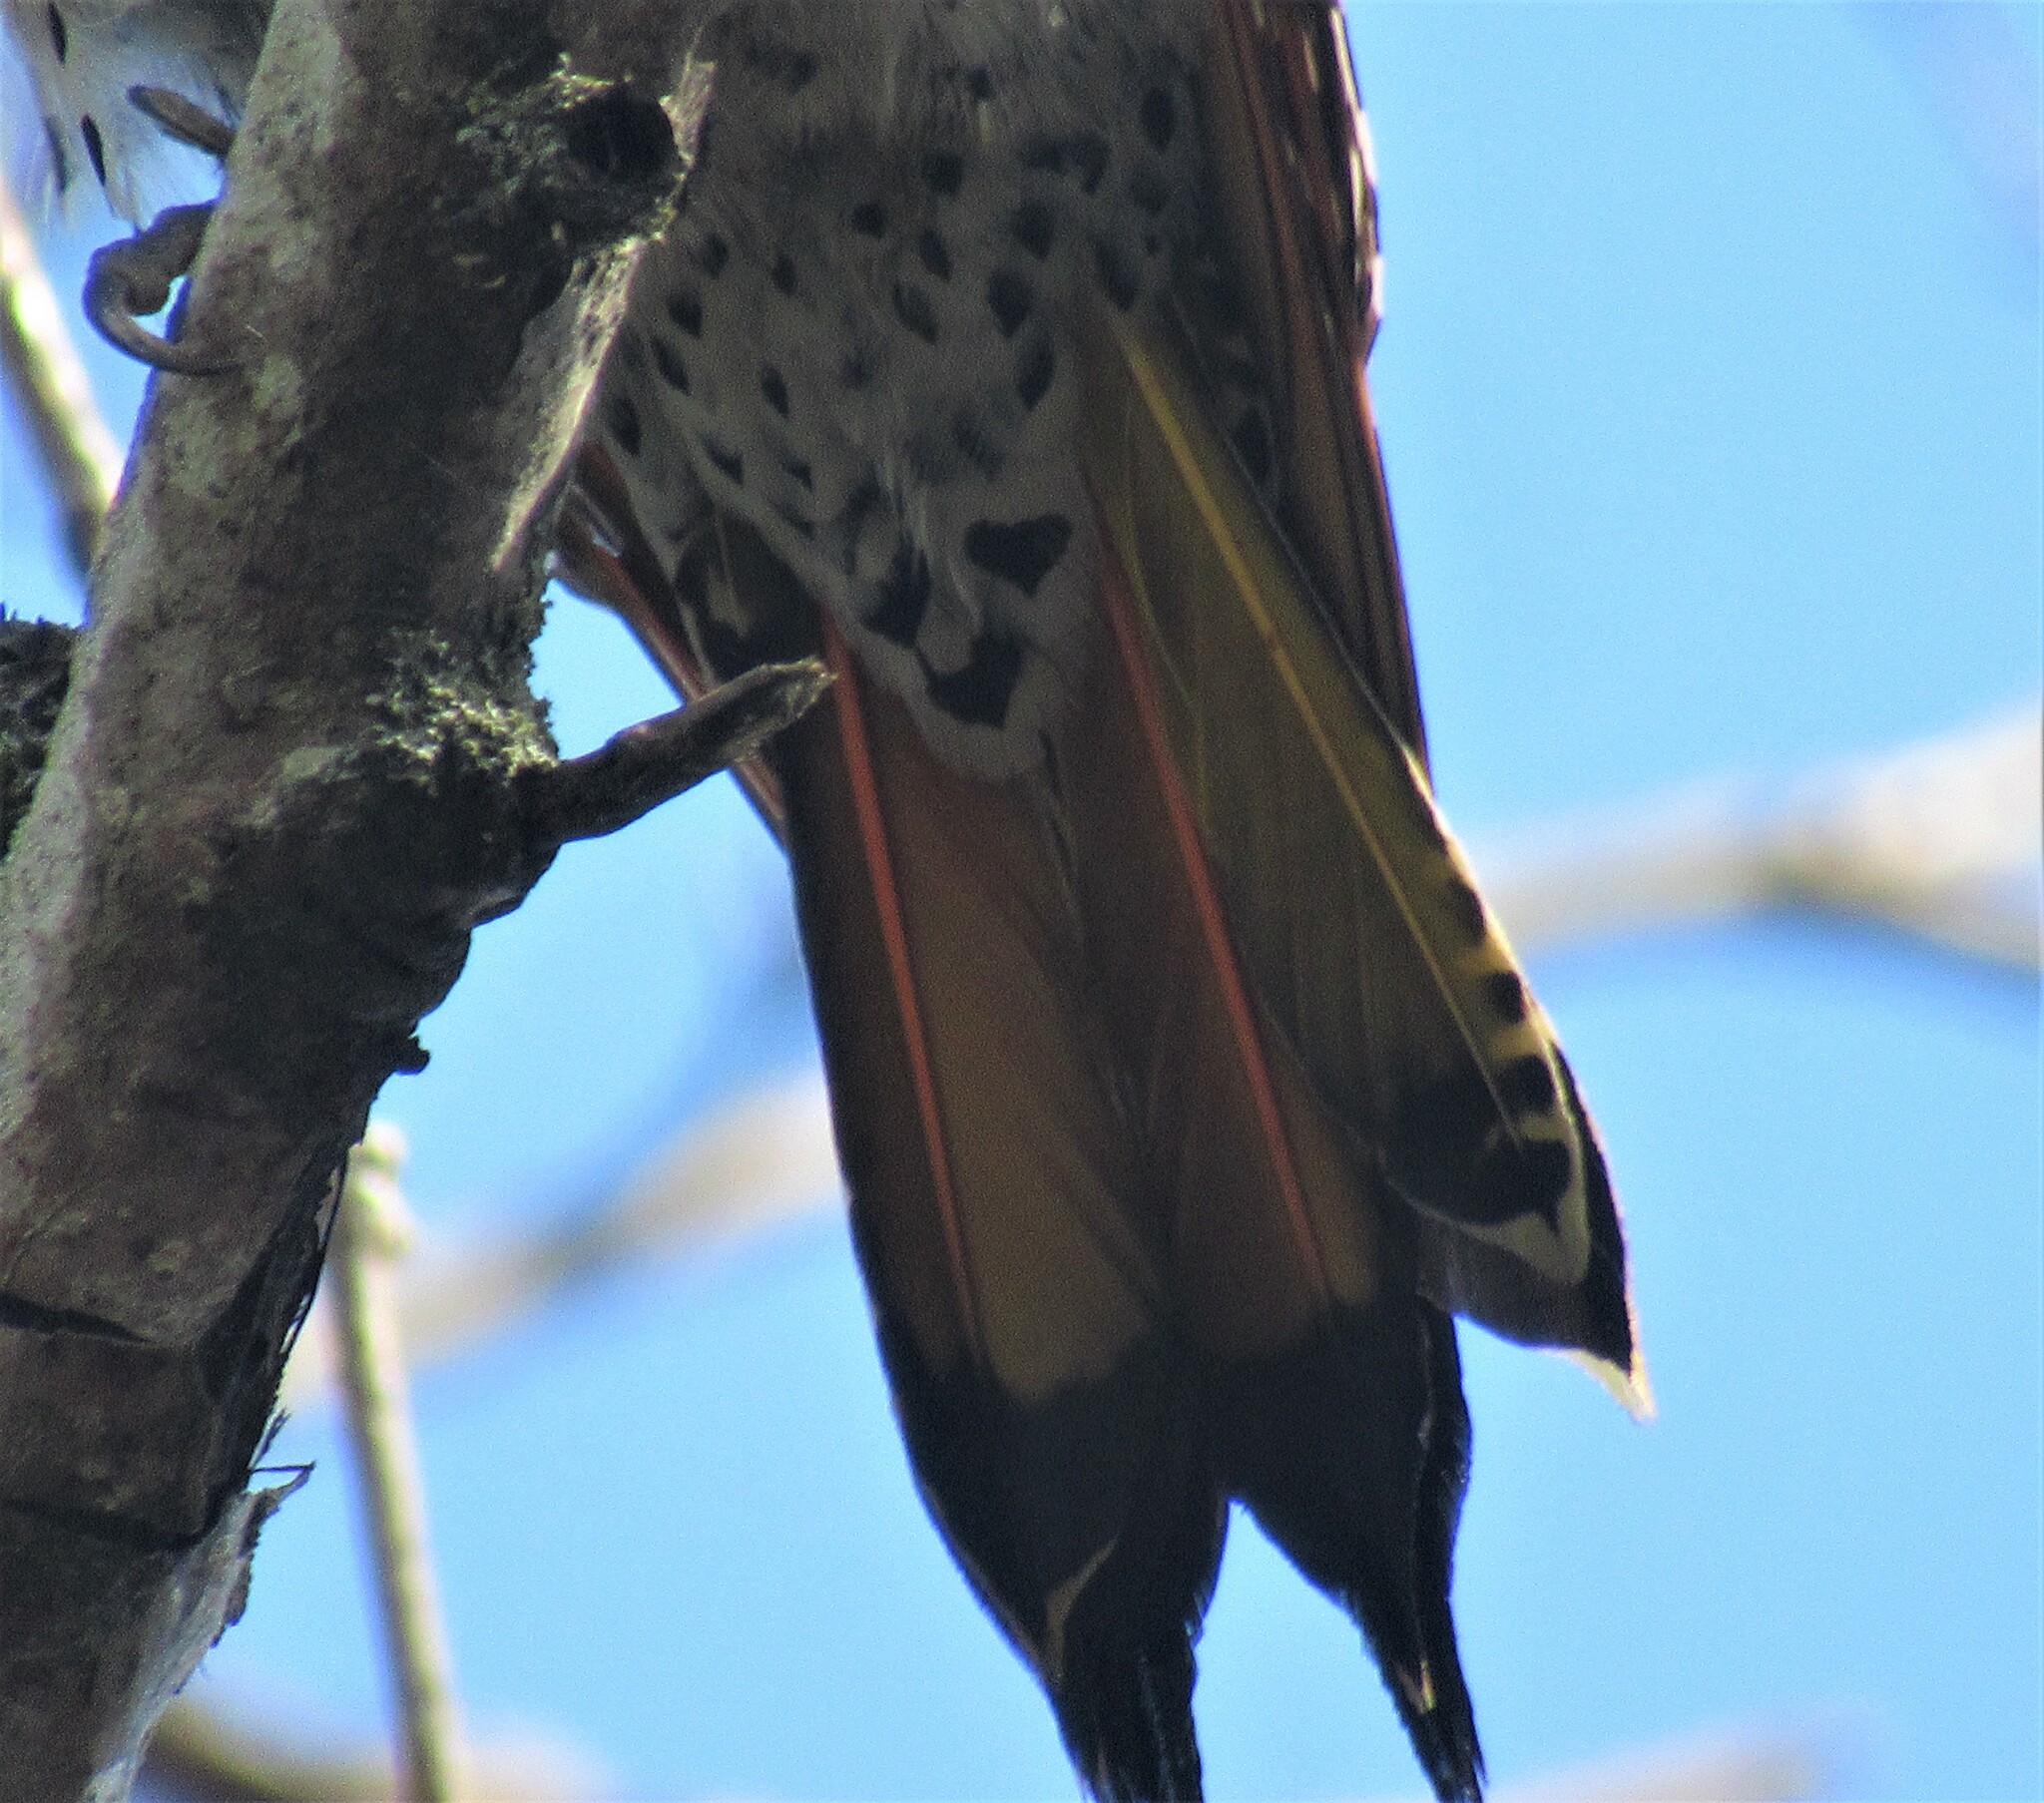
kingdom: Animalia
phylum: Chordata
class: Aves
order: Piciformes
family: Picidae
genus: Colaptes
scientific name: Colaptes
